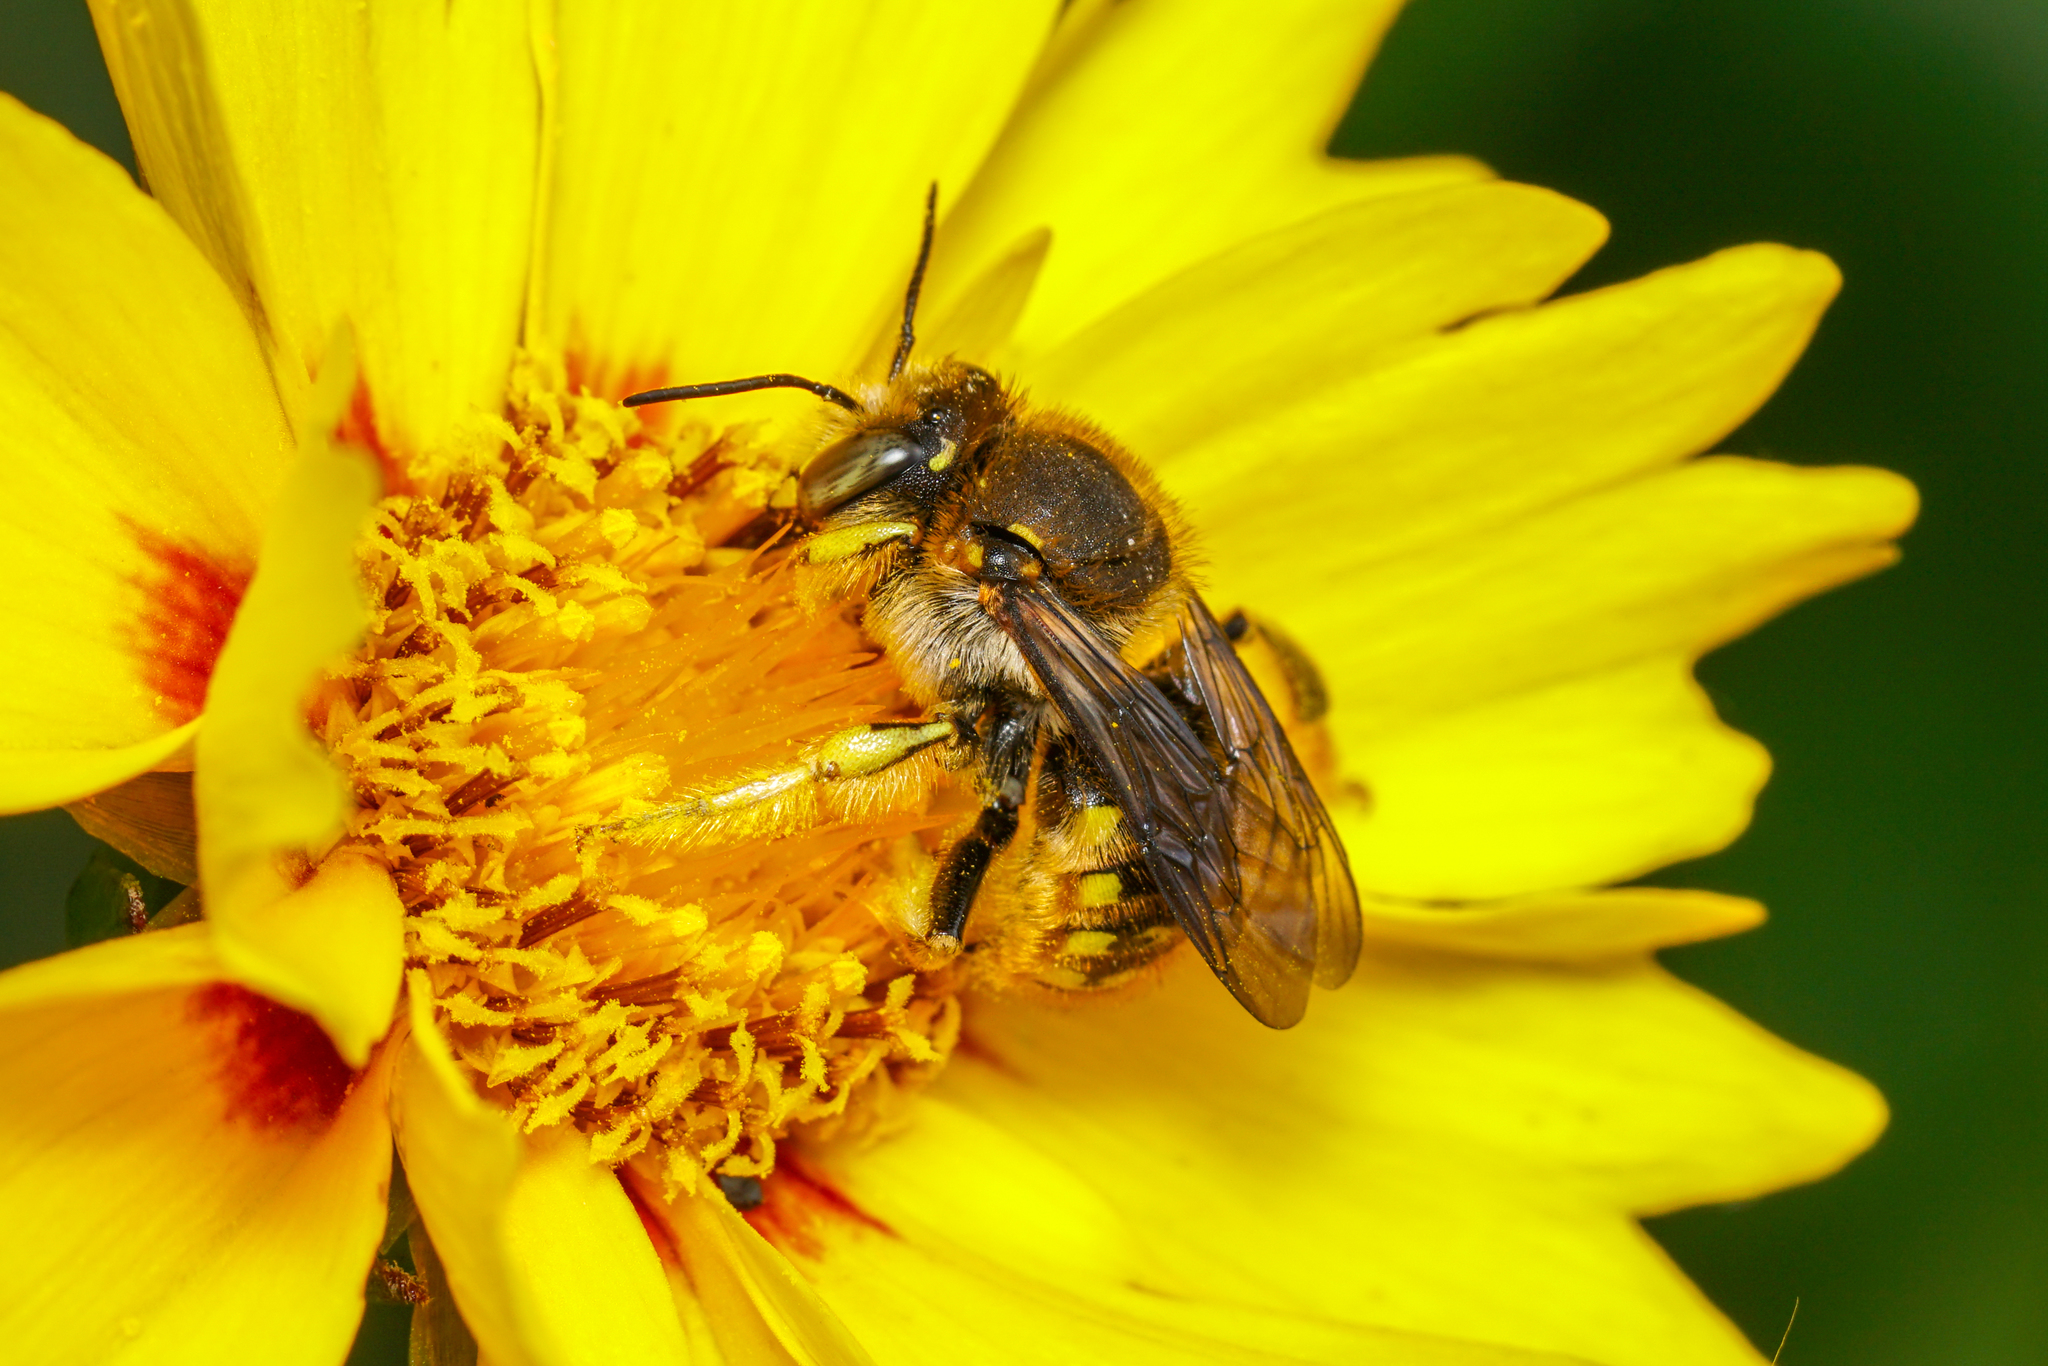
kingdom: Animalia
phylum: Arthropoda
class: Insecta
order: Hymenoptera
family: Megachilidae
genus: Anthidium
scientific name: Anthidium manicatum
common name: Wool carder bee
